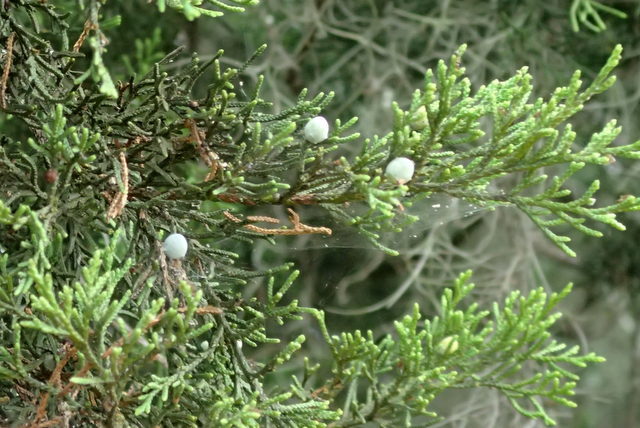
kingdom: Plantae
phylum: Tracheophyta
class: Pinopsida
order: Pinales
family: Cupressaceae
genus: Juniperus
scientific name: Juniperus virginiana
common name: Red juniper
